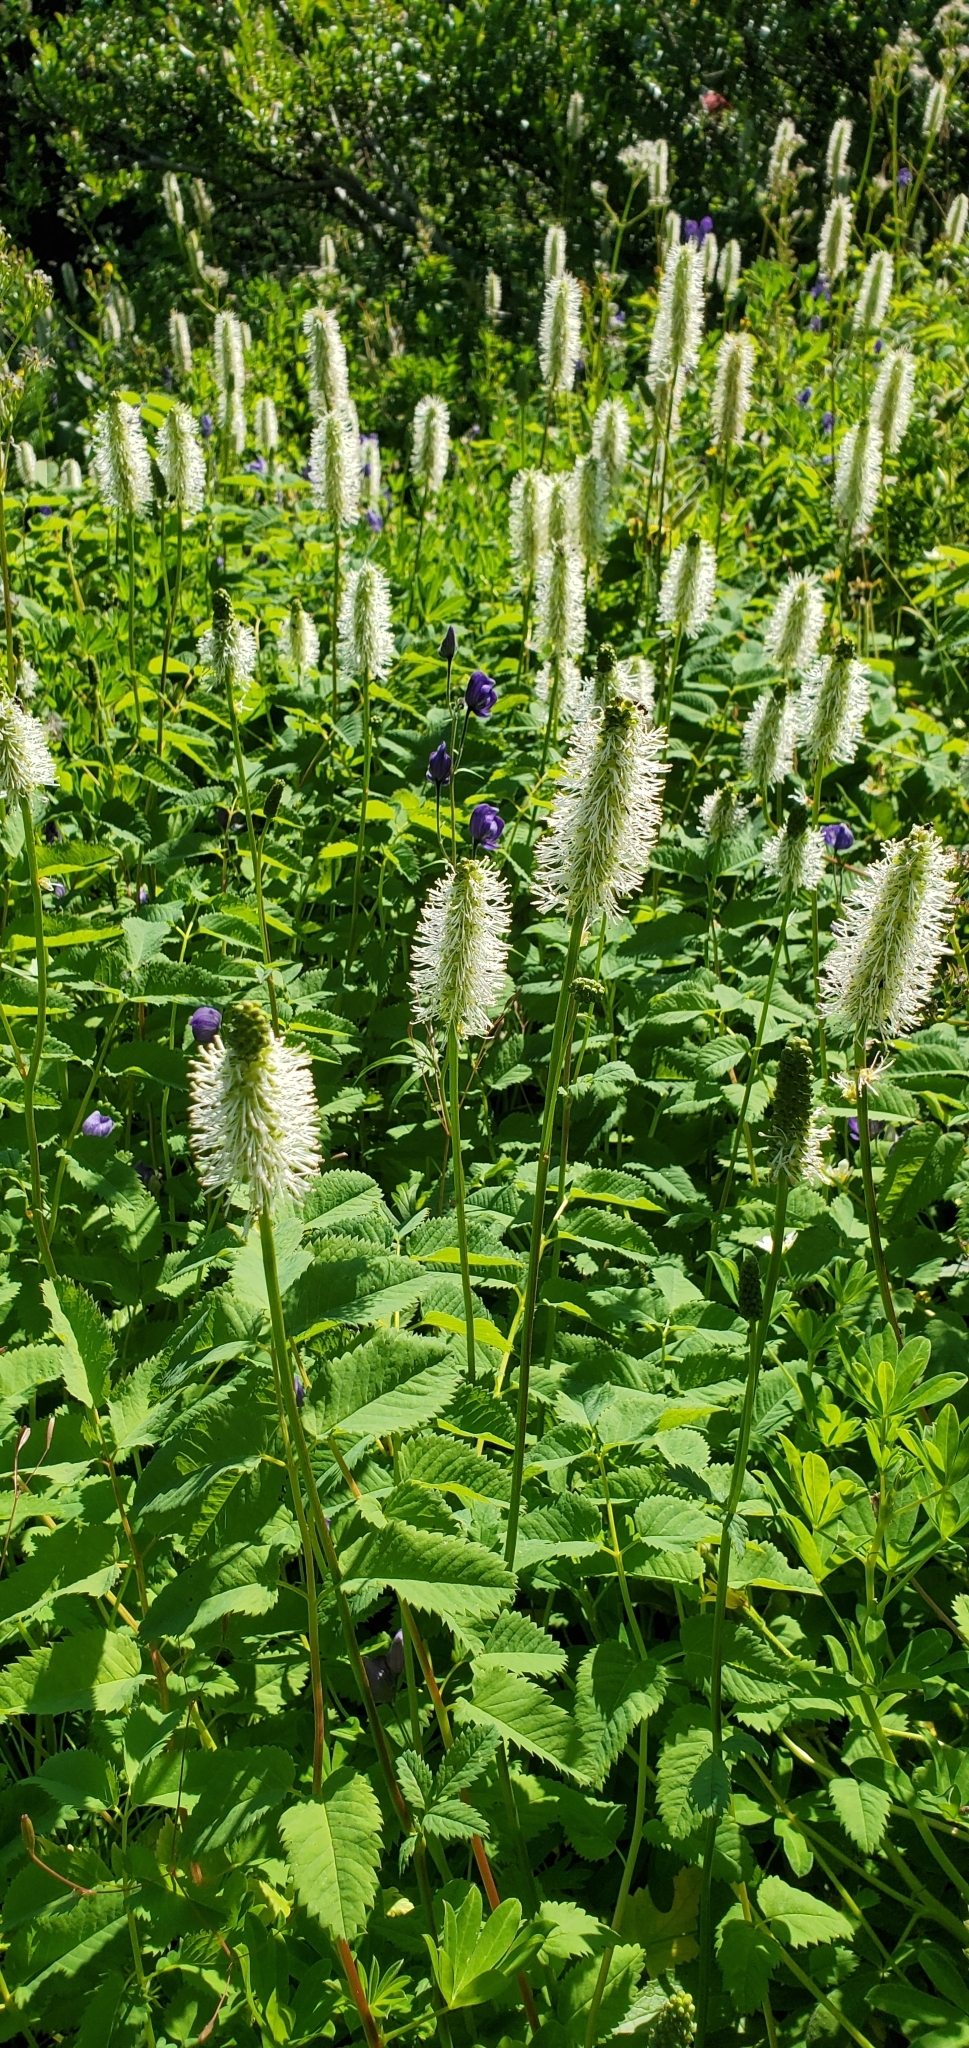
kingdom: Plantae
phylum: Tracheophyta
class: Magnoliopsida
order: Rosales
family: Rosaceae
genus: Sanguisorba
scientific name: Sanguisorba stipulata
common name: Sitka burnet
